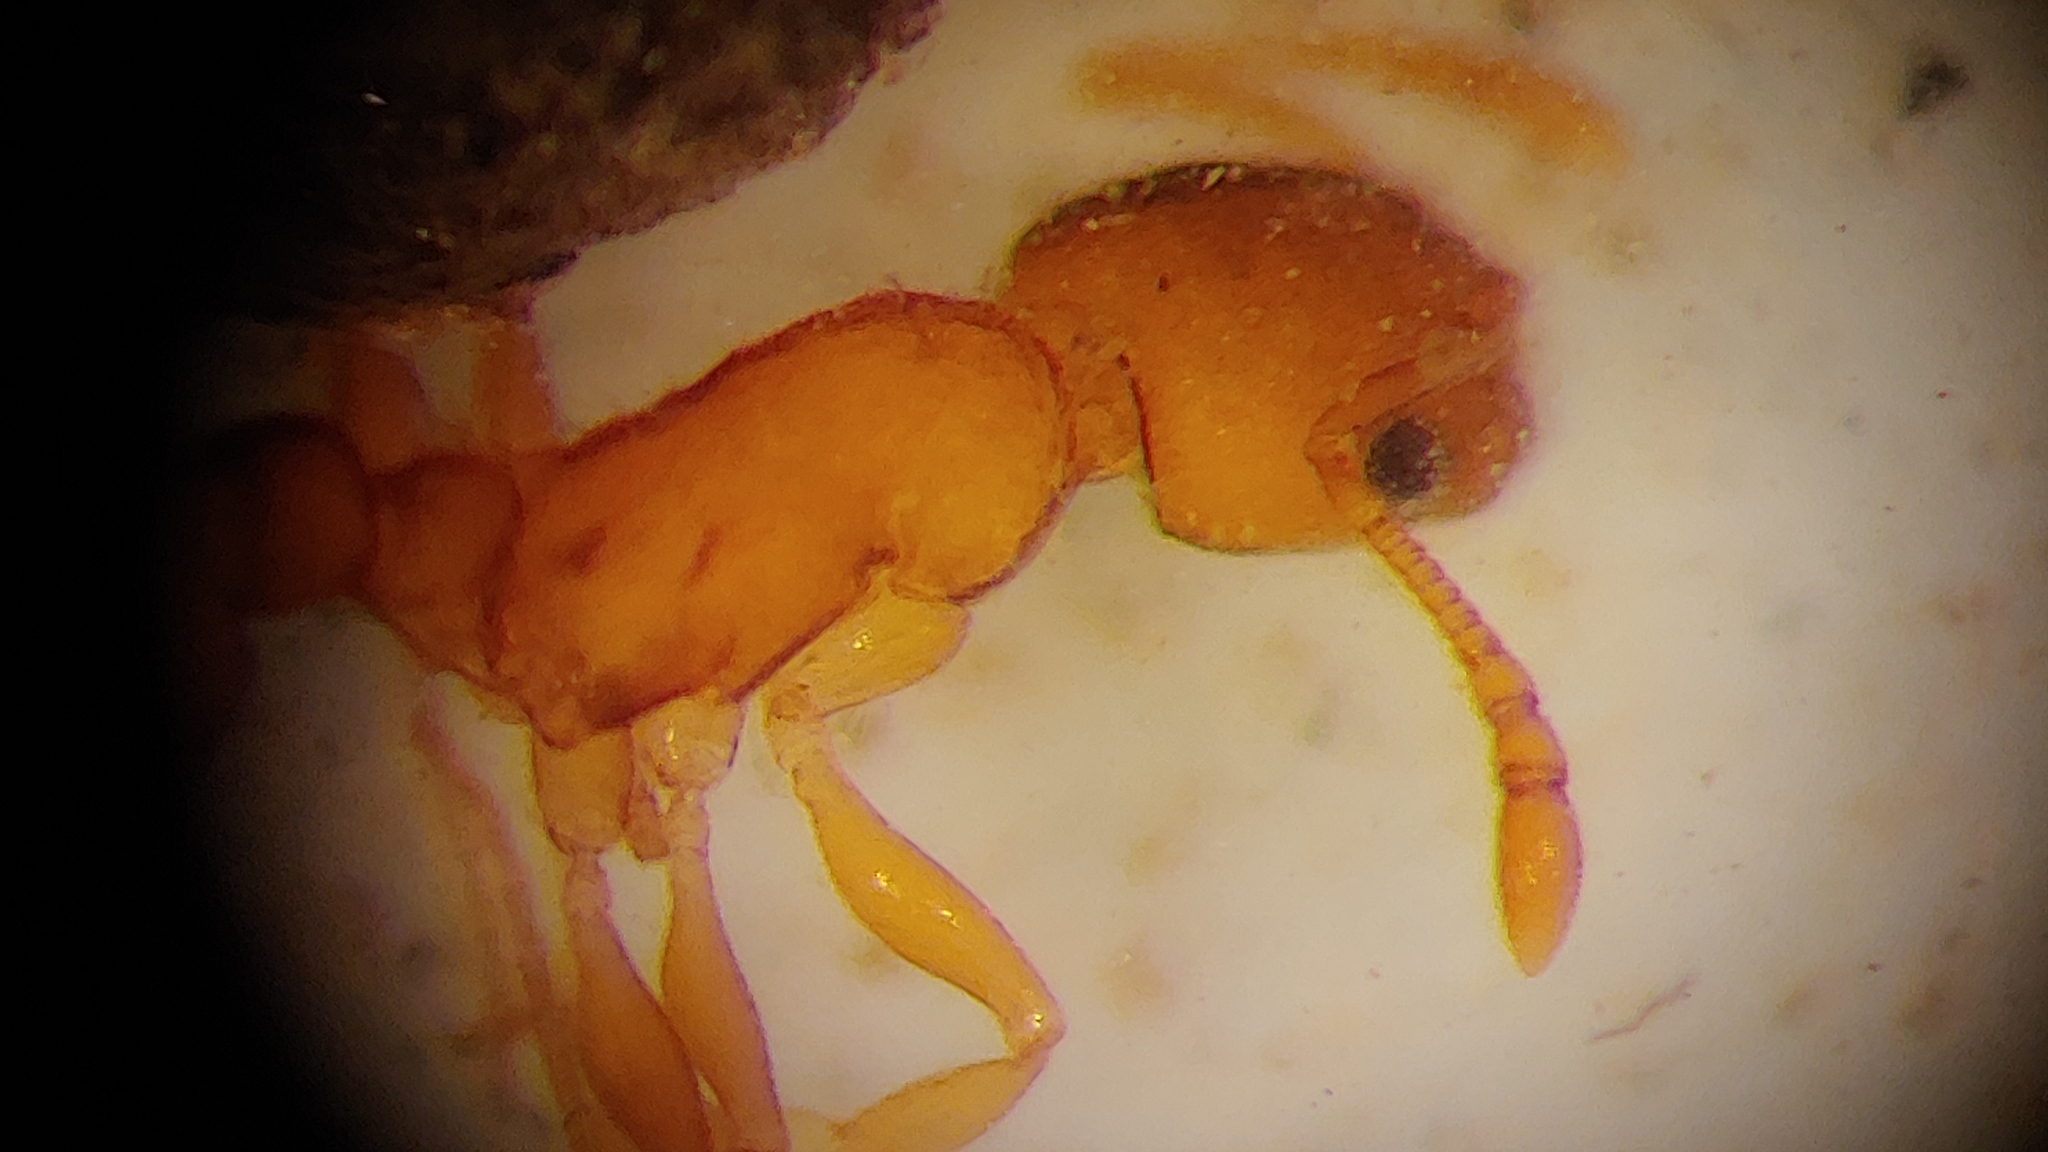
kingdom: Animalia
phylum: Arthropoda
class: Insecta
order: Hymenoptera
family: Formicidae
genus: Temnothorax
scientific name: Temnothorax ambiguus
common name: Doubtful acorn ant
